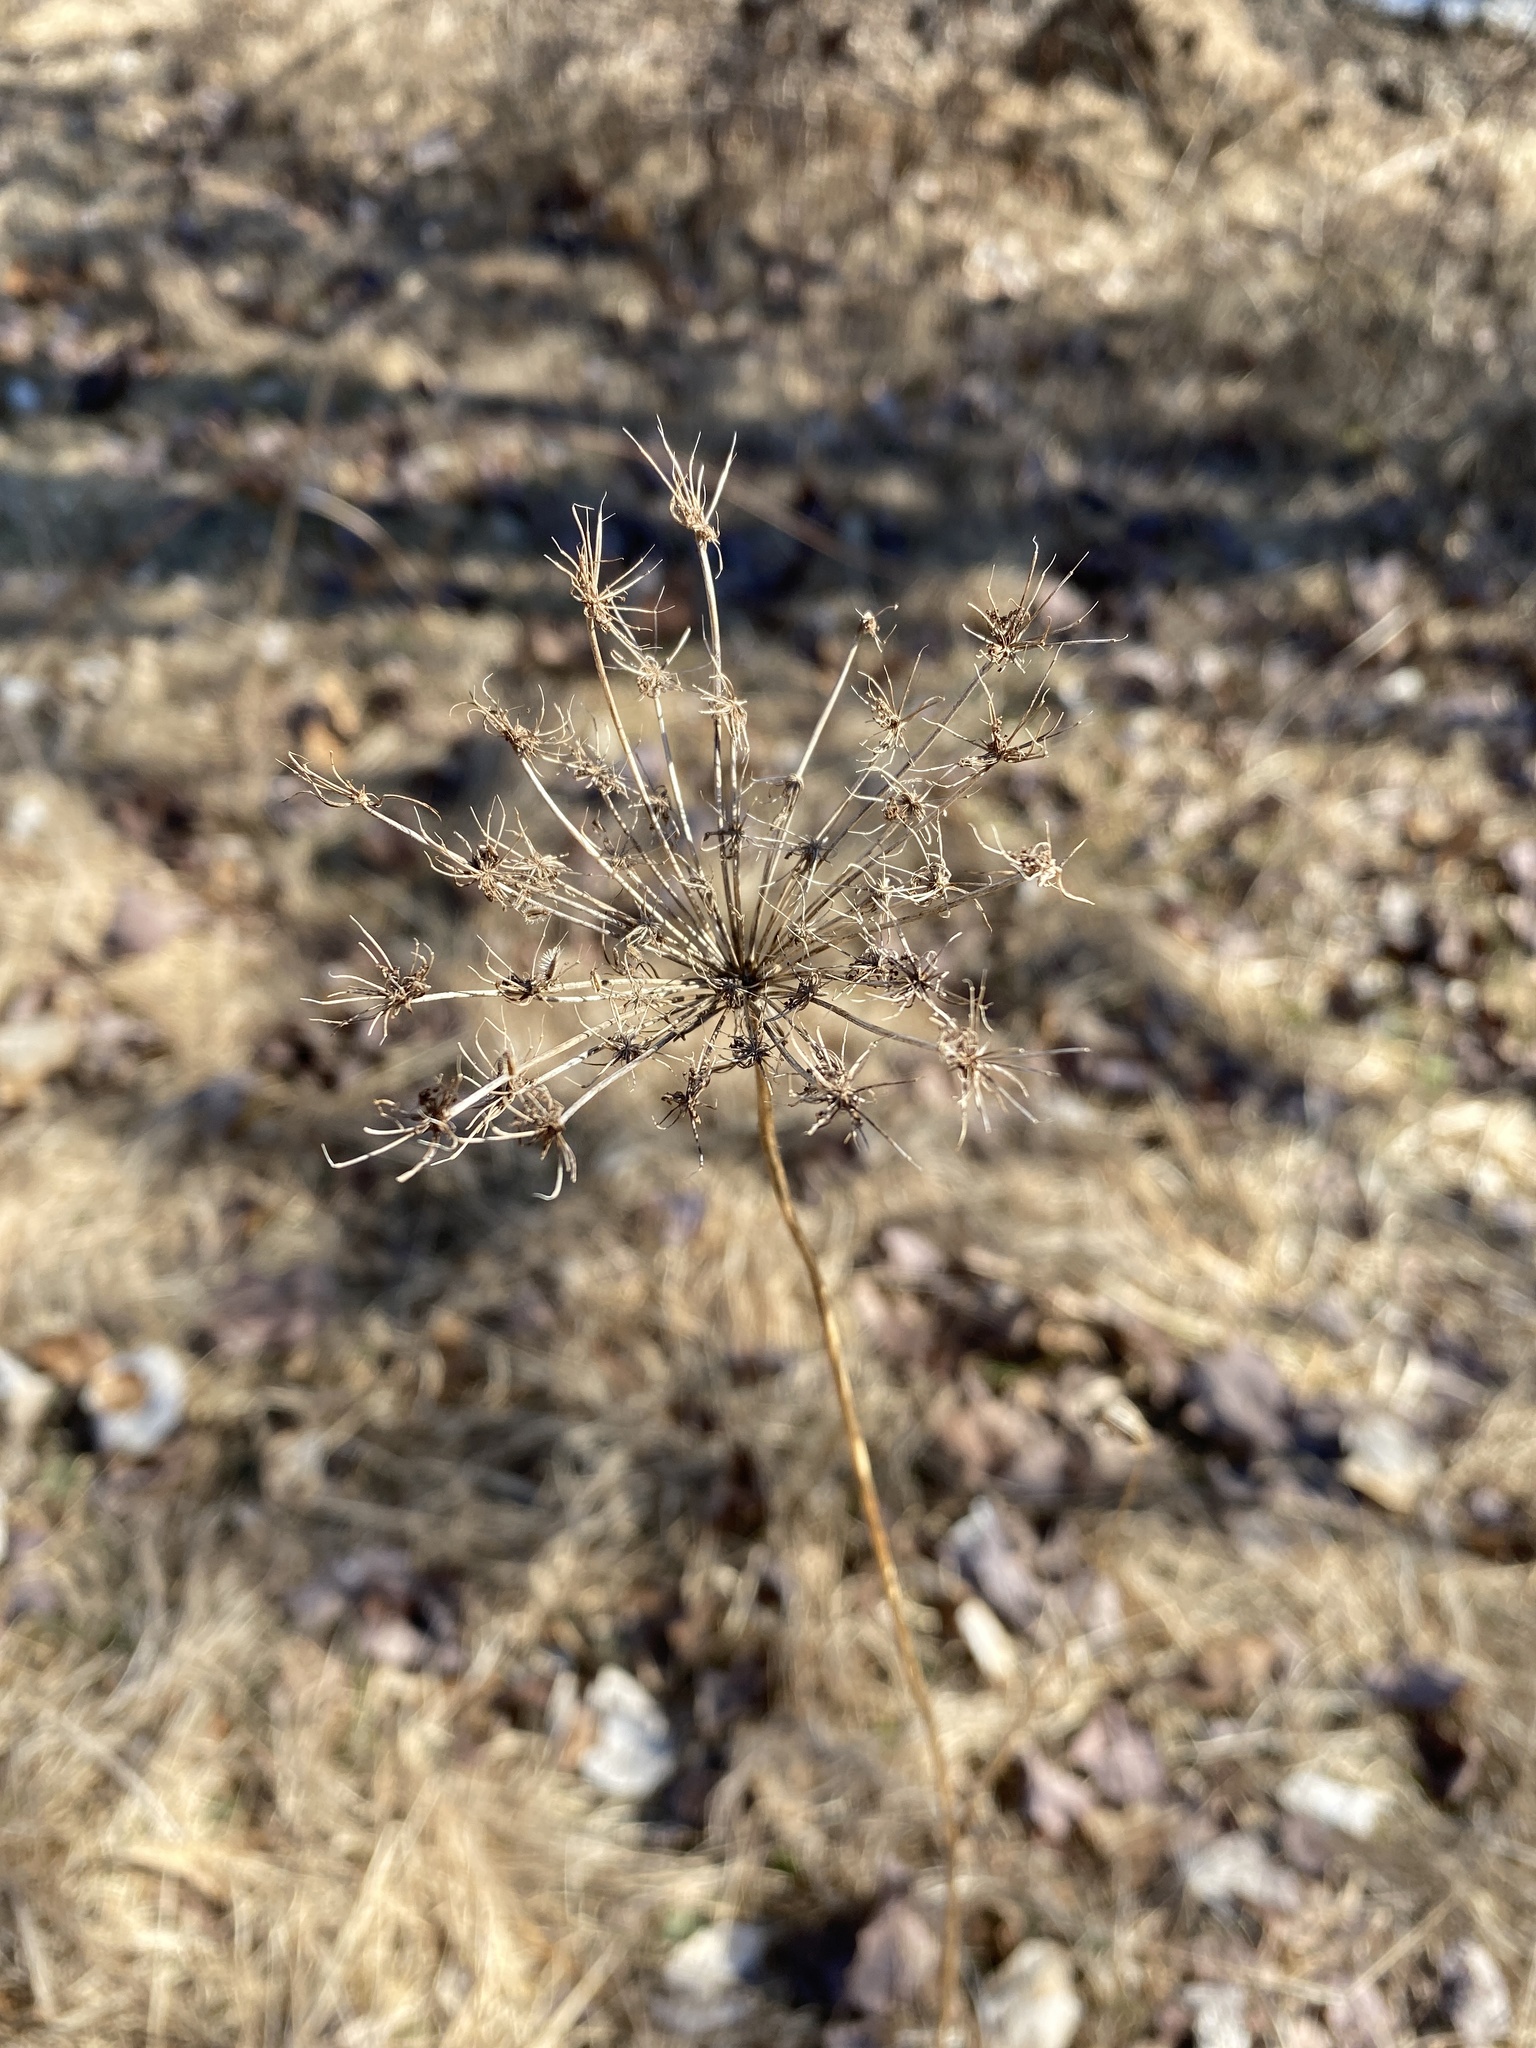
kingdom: Plantae
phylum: Tracheophyta
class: Magnoliopsida
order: Apiales
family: Apiaceae
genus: Daucus
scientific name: Daucus carota
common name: Wild carrot
